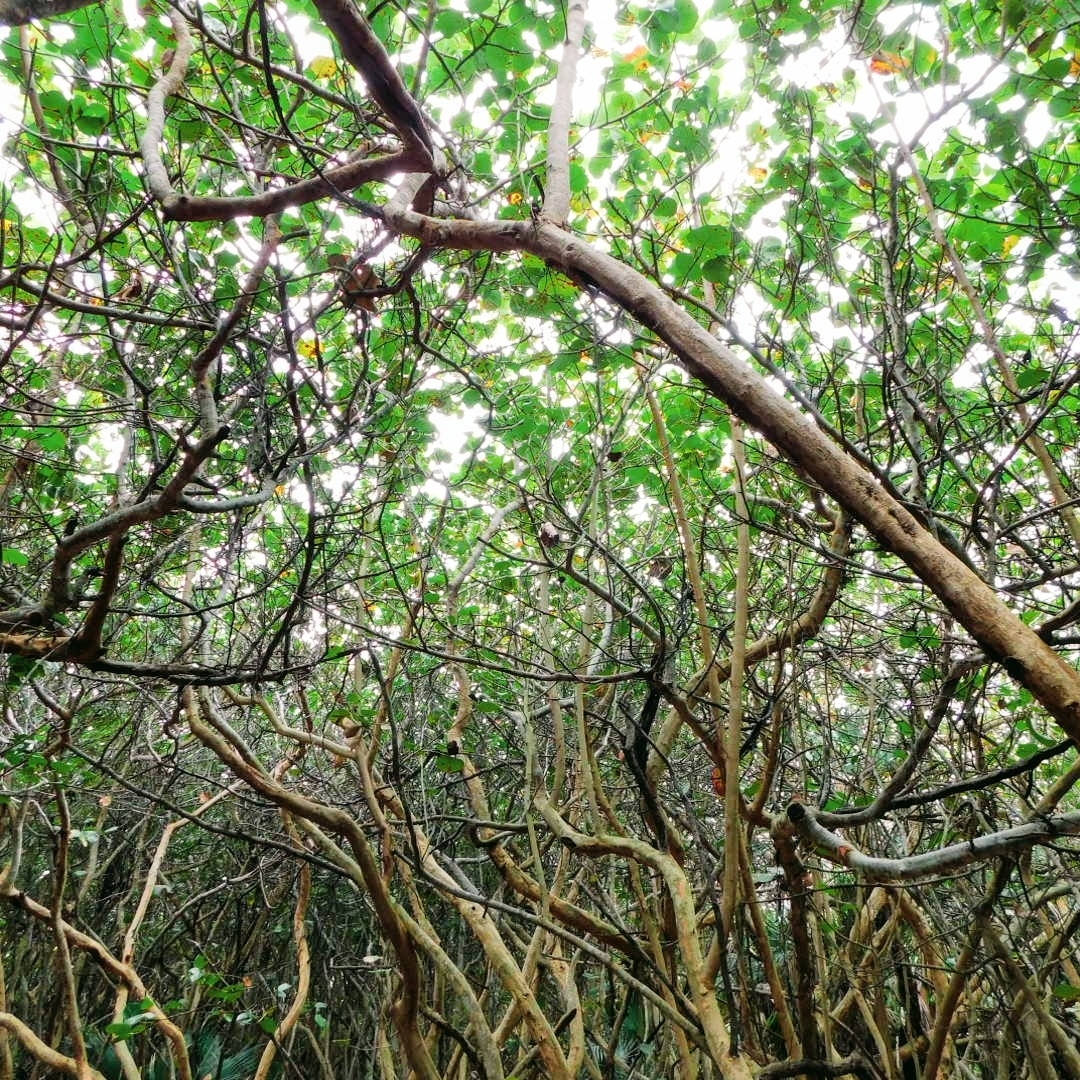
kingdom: Plantae
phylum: Tracheophyta
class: Magnoliopsida
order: Caryophyllales
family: Polygonaceae
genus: Coccoloba
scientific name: Coccoloba uvifera
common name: Seagrape
